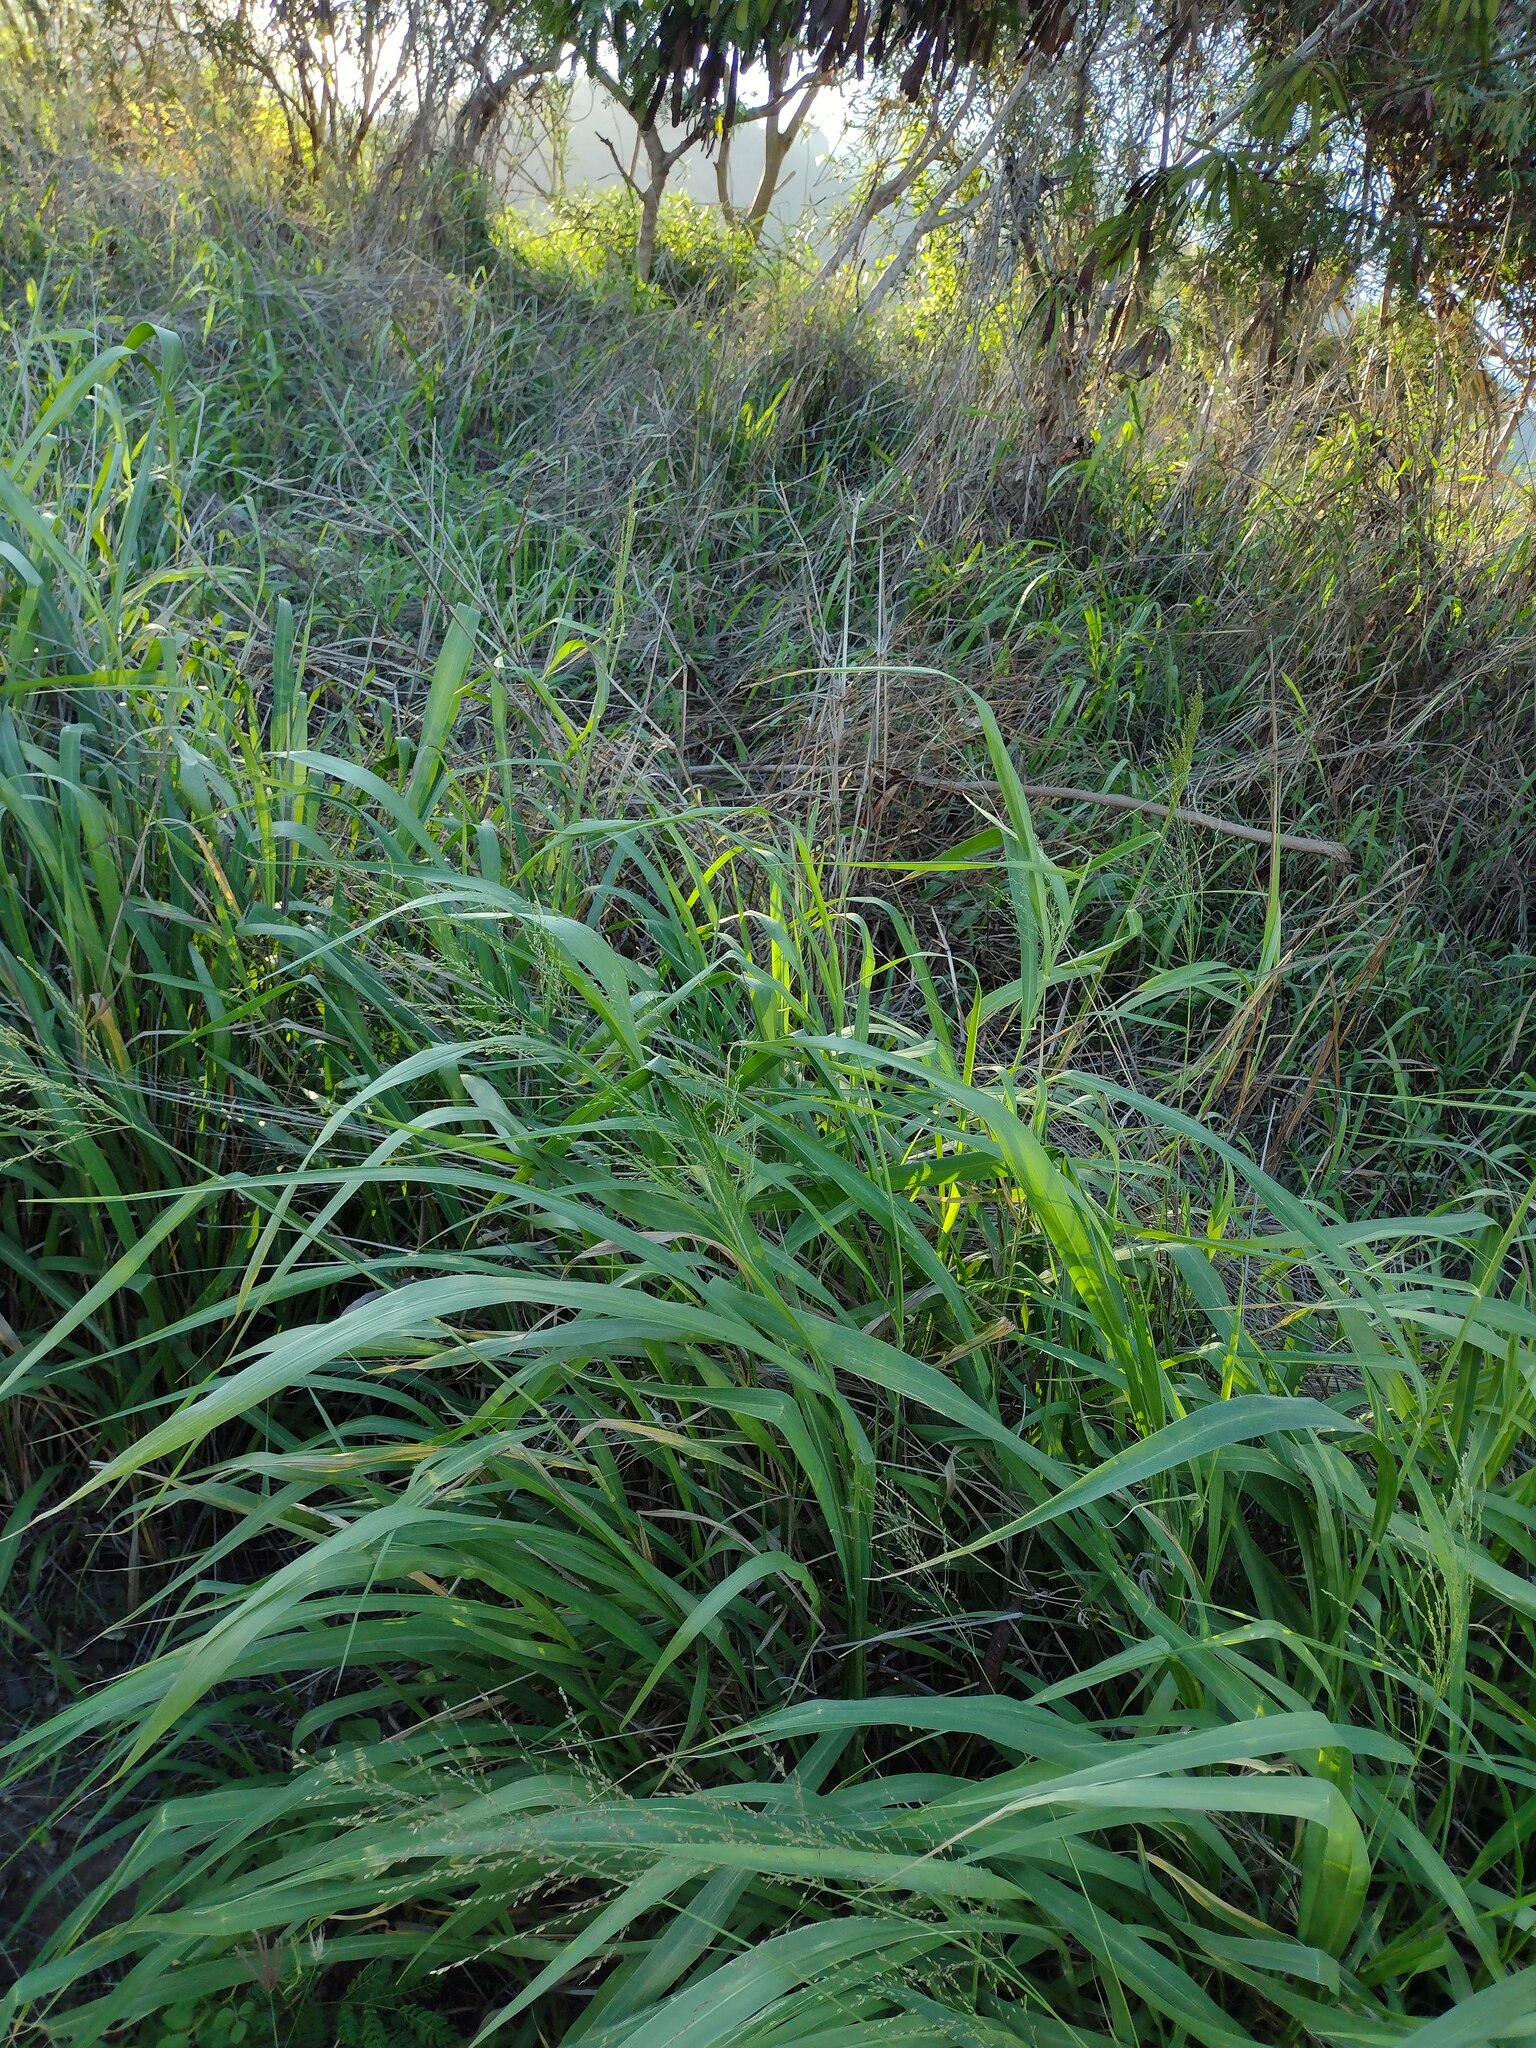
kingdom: Plantae
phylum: Tracheophyta
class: Liliopsida
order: Poales
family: Poaceae
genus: Megathyrsus
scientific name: Megathyrsus maximus
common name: Guineagrass
